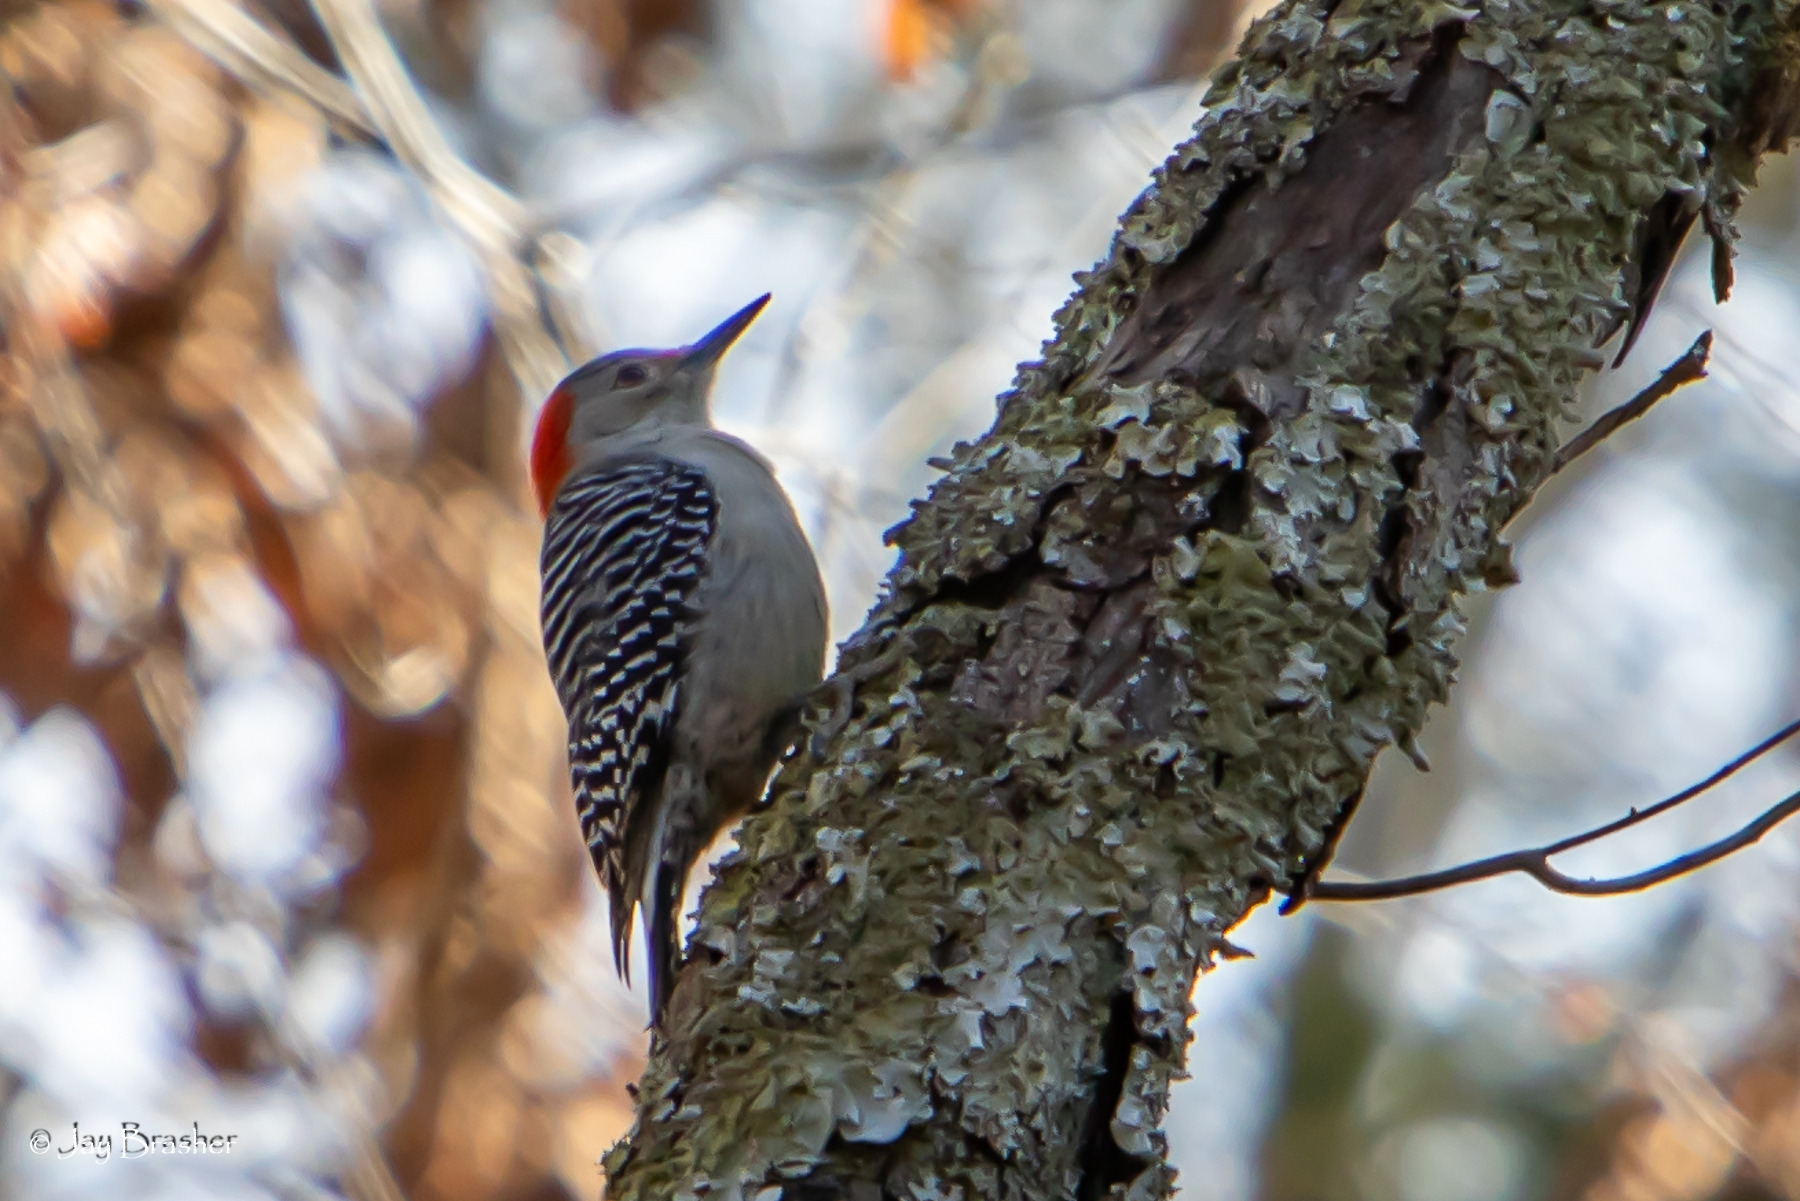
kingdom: Animalia
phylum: Chordata
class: Aves
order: Piciformes
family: Picidae
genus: Melanerpes
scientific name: Melanerpes carolinus
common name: Red-bellied woodpecker
